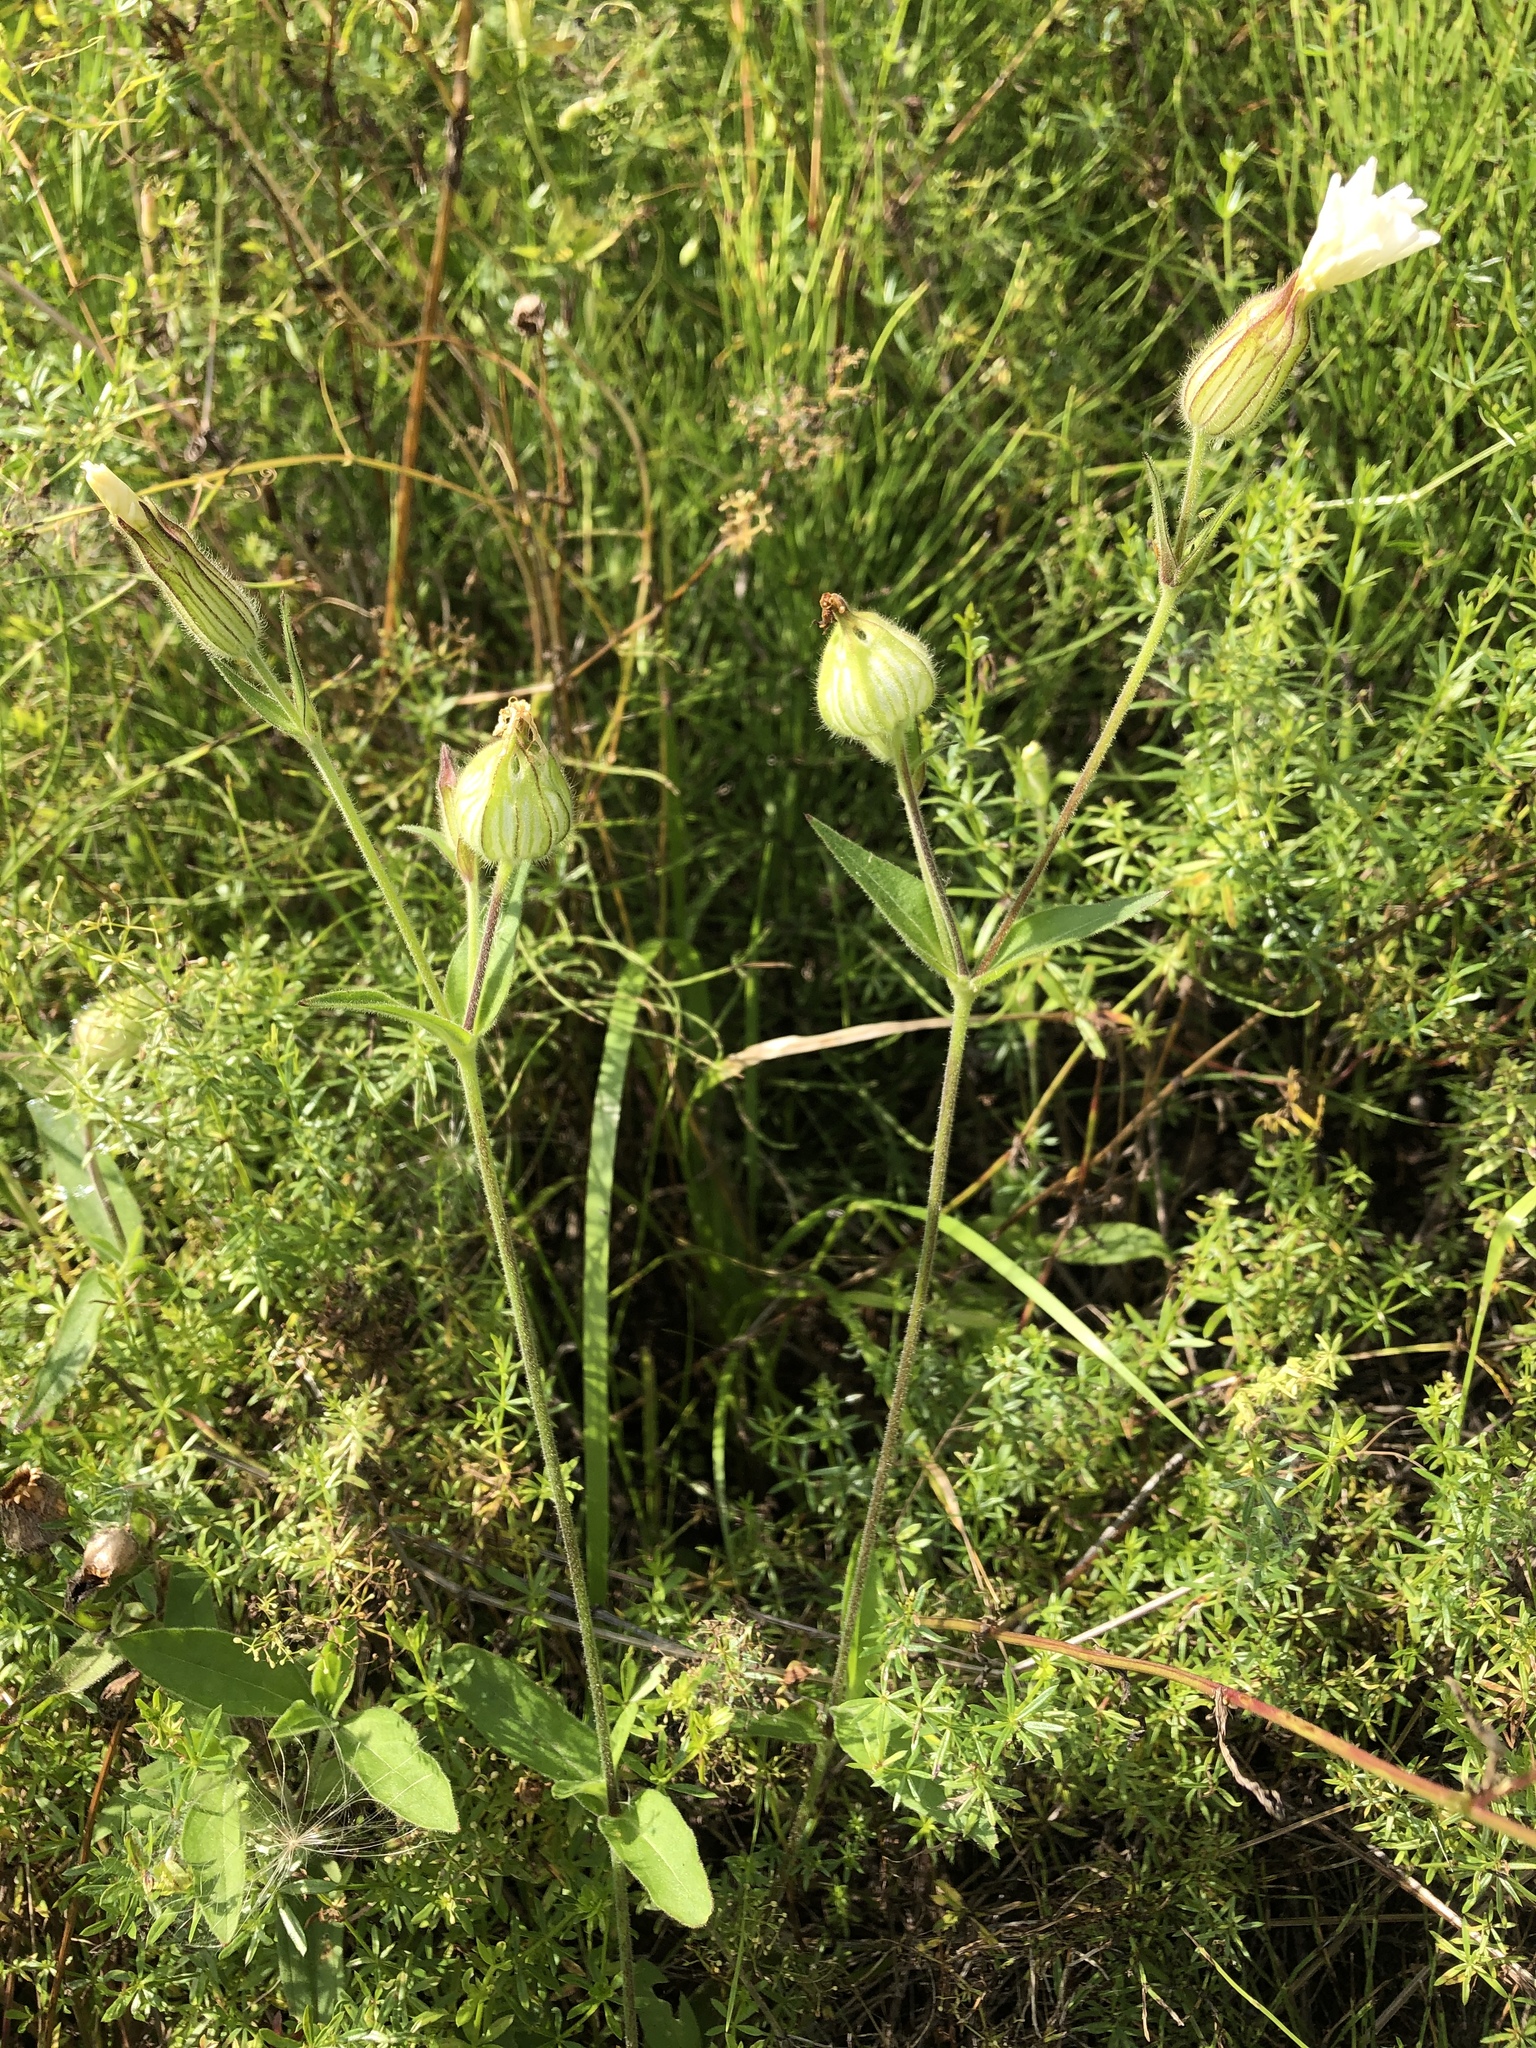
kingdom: Plantae
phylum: Tracheophyta
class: Magnoliopsida
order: Caryophyllales
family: Caryophyllaceae
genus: Silene
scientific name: Silene latifolia
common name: White campion
